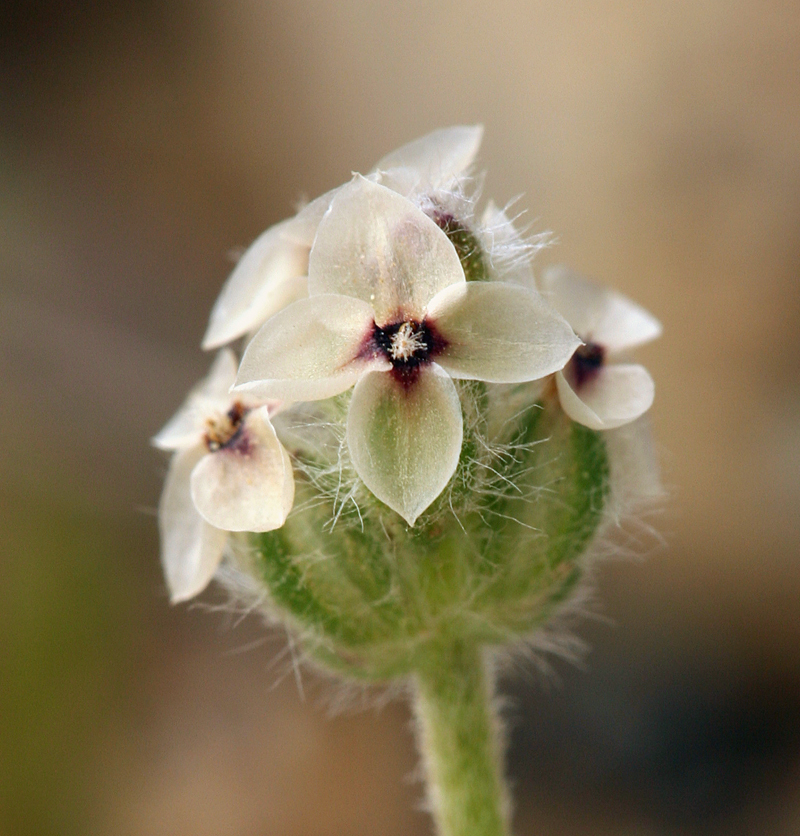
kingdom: Plantae
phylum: Tracheophyta
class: Magnoliopsida
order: Lamiales
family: Plantaginaceae
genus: Plantago
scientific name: Plantago erecta
